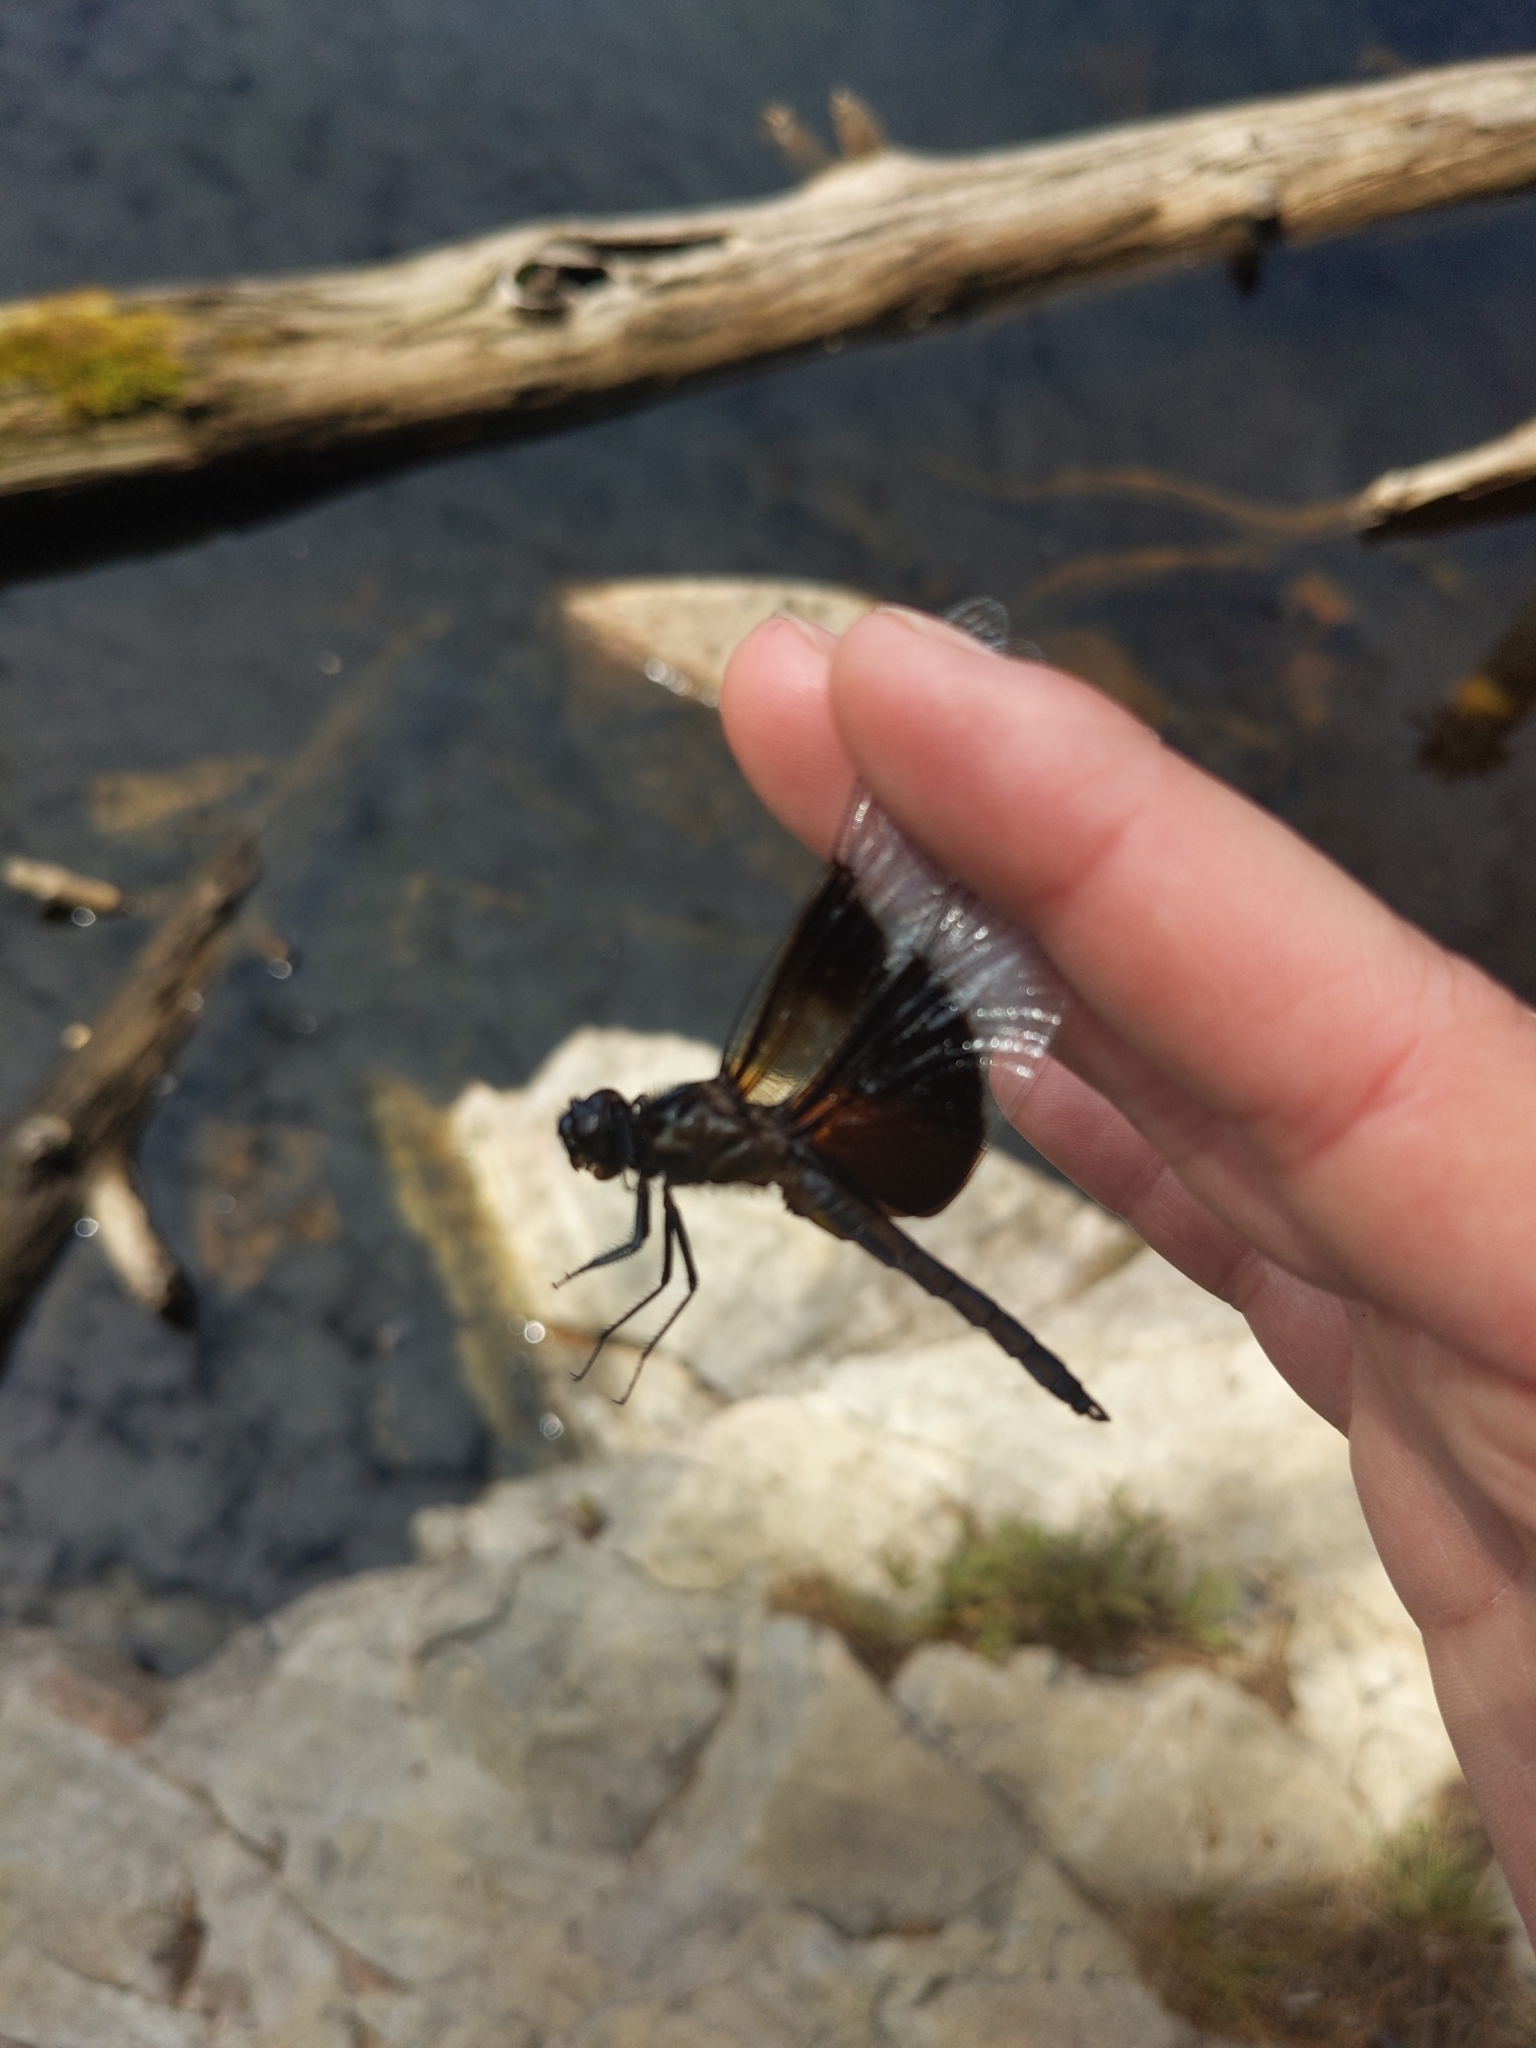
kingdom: Animalia
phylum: Arthropoda
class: Insecta
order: Odonata
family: Libellulidae
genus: Libellula
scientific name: Libellula luctuosa
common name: Widow skimmer
